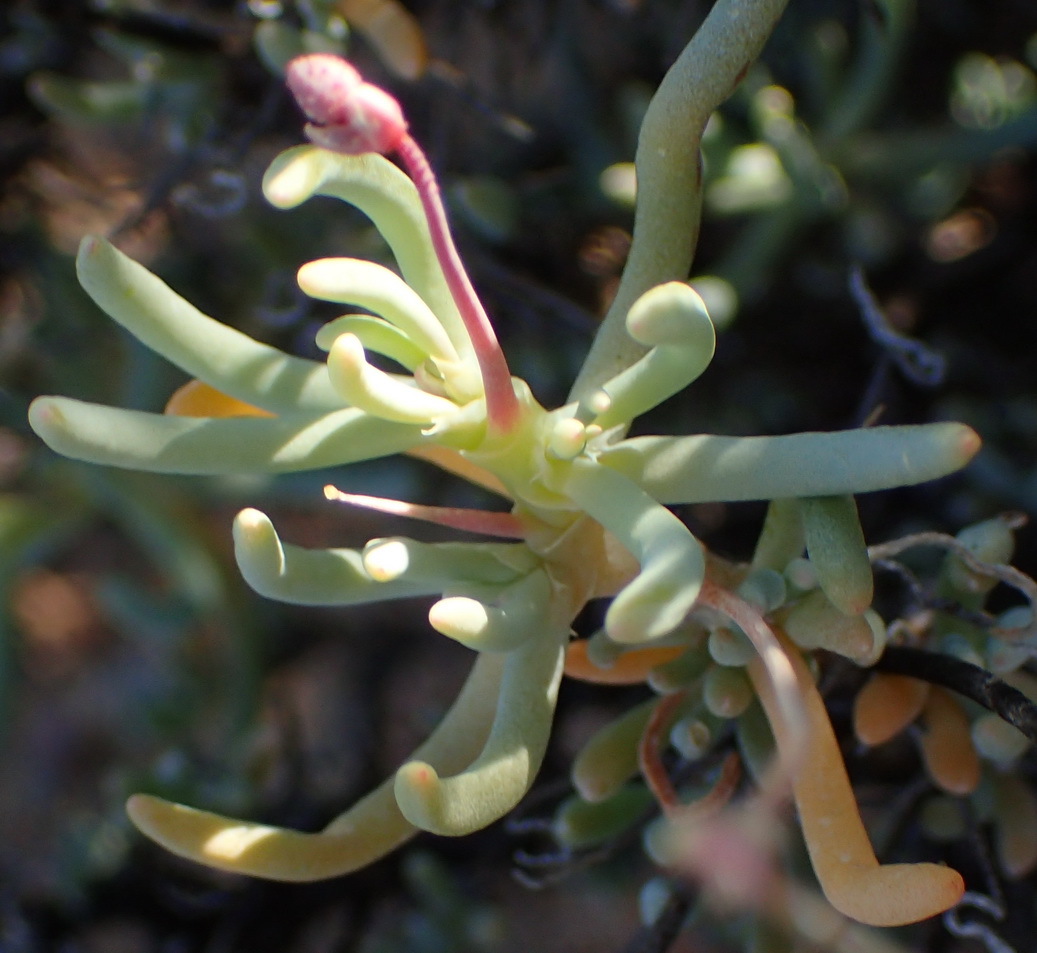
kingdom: Plantae
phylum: Tracheophyta
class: Magnoliopsida
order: Caryophyllales
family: Kewaceae
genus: Kewa
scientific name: Kewa salsoloides
